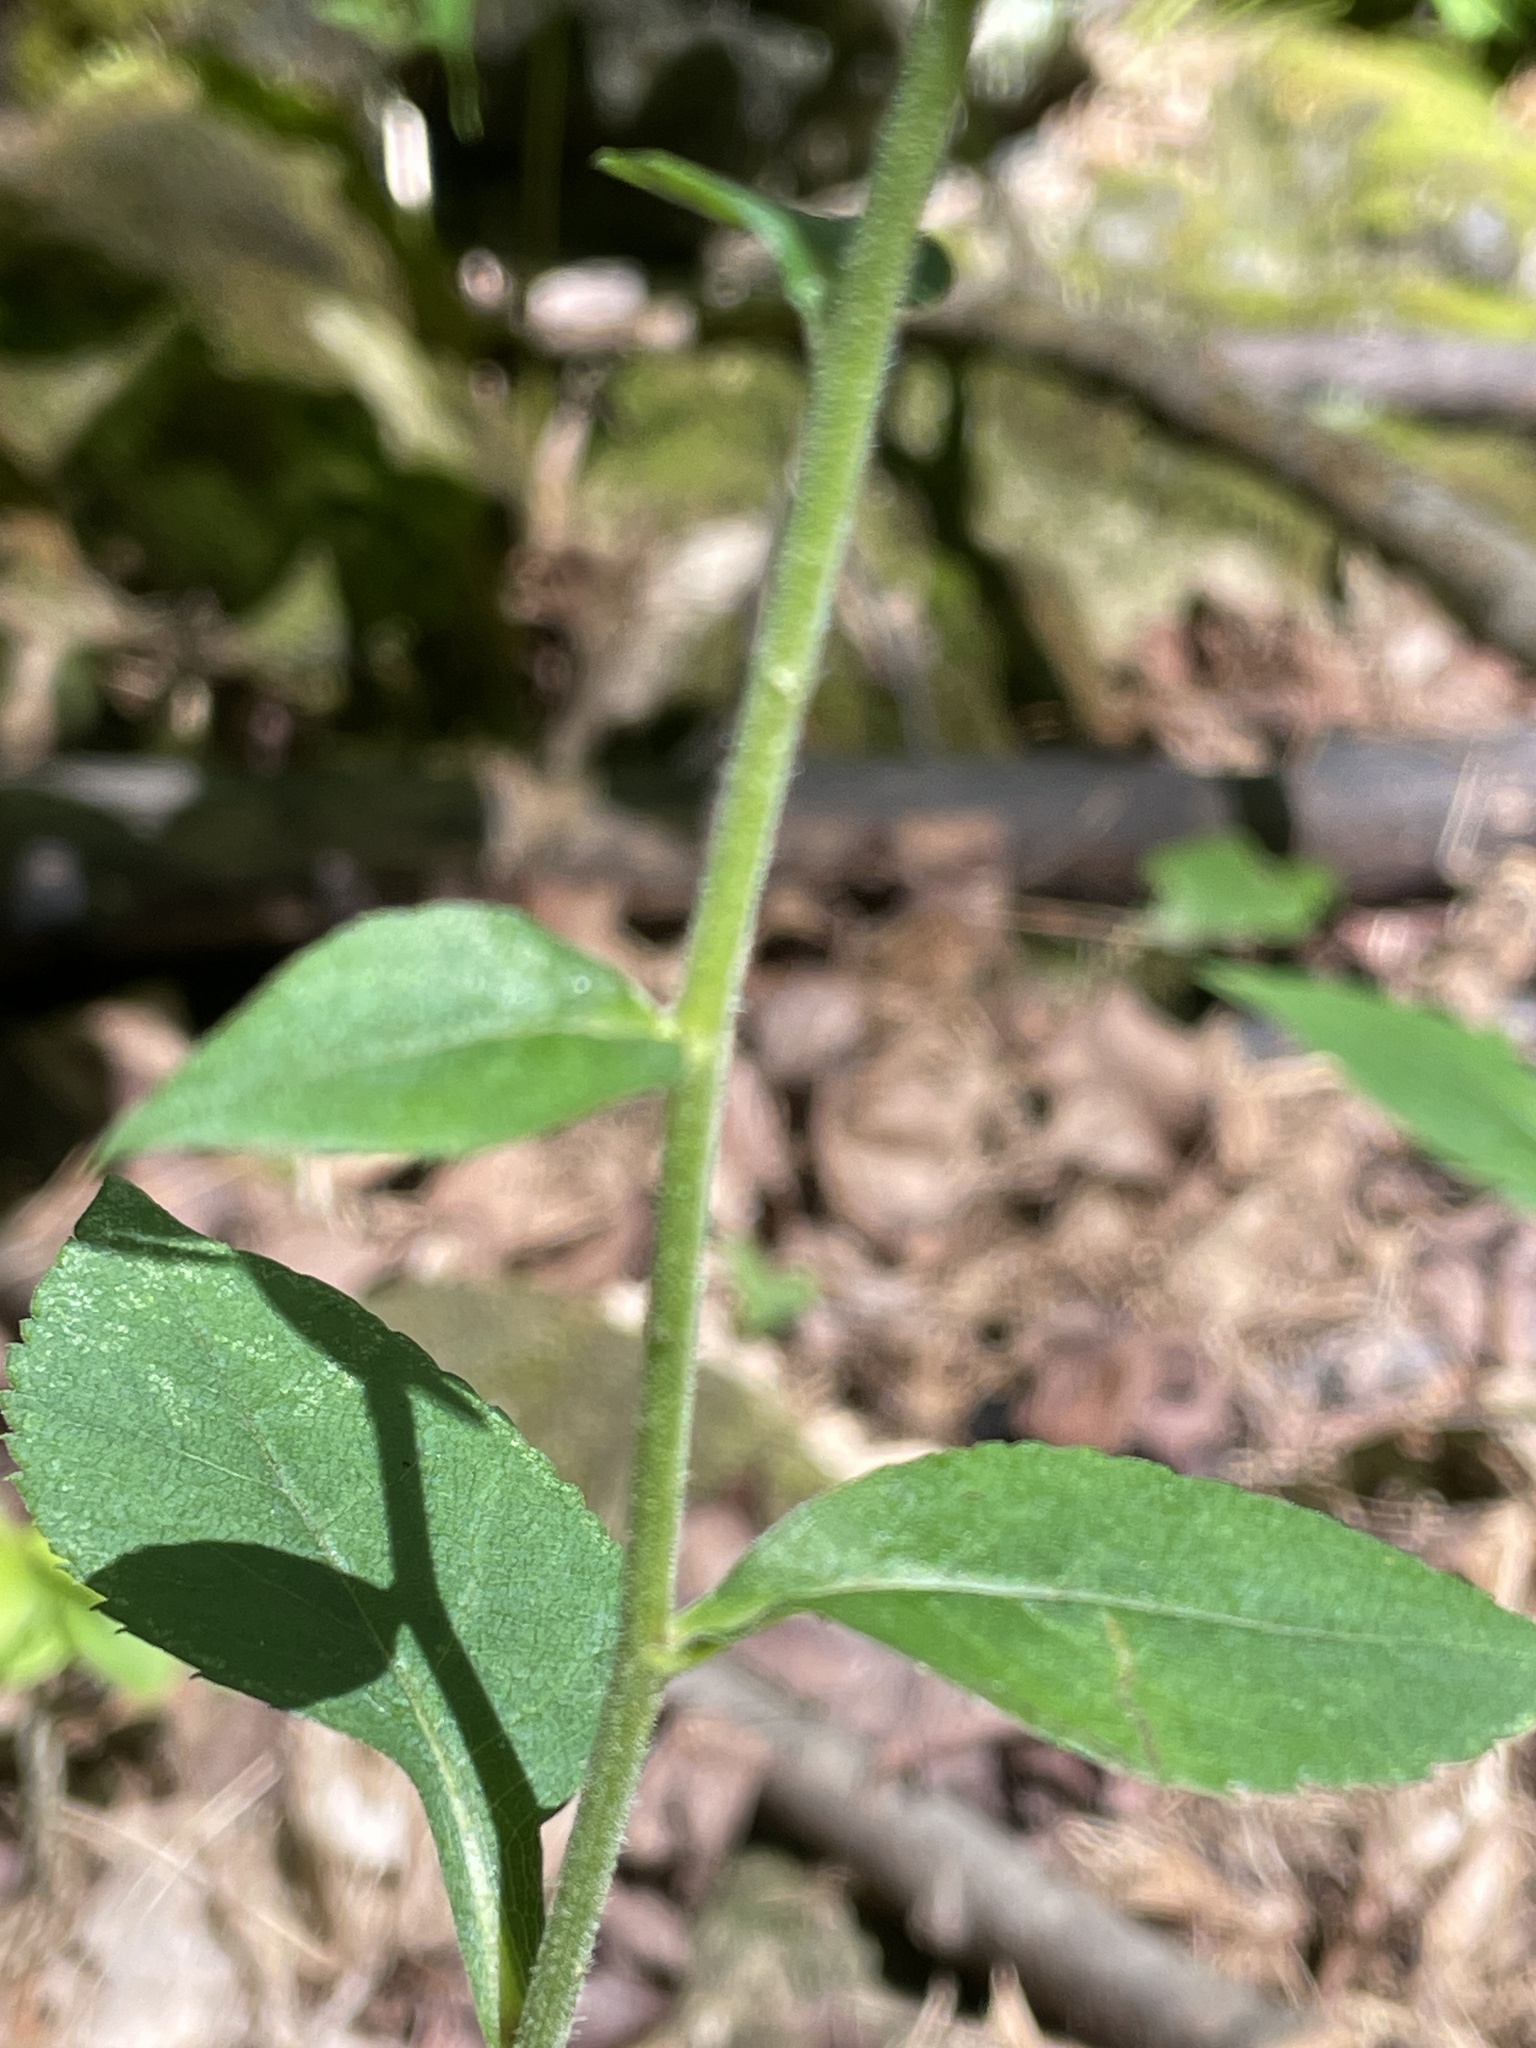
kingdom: Plantae
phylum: Tracheophyta
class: Magnoliopsida
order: Asterales
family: Asteraceae
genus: Eurybia
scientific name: Eurybia macrophylla
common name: Big-leaved aster
